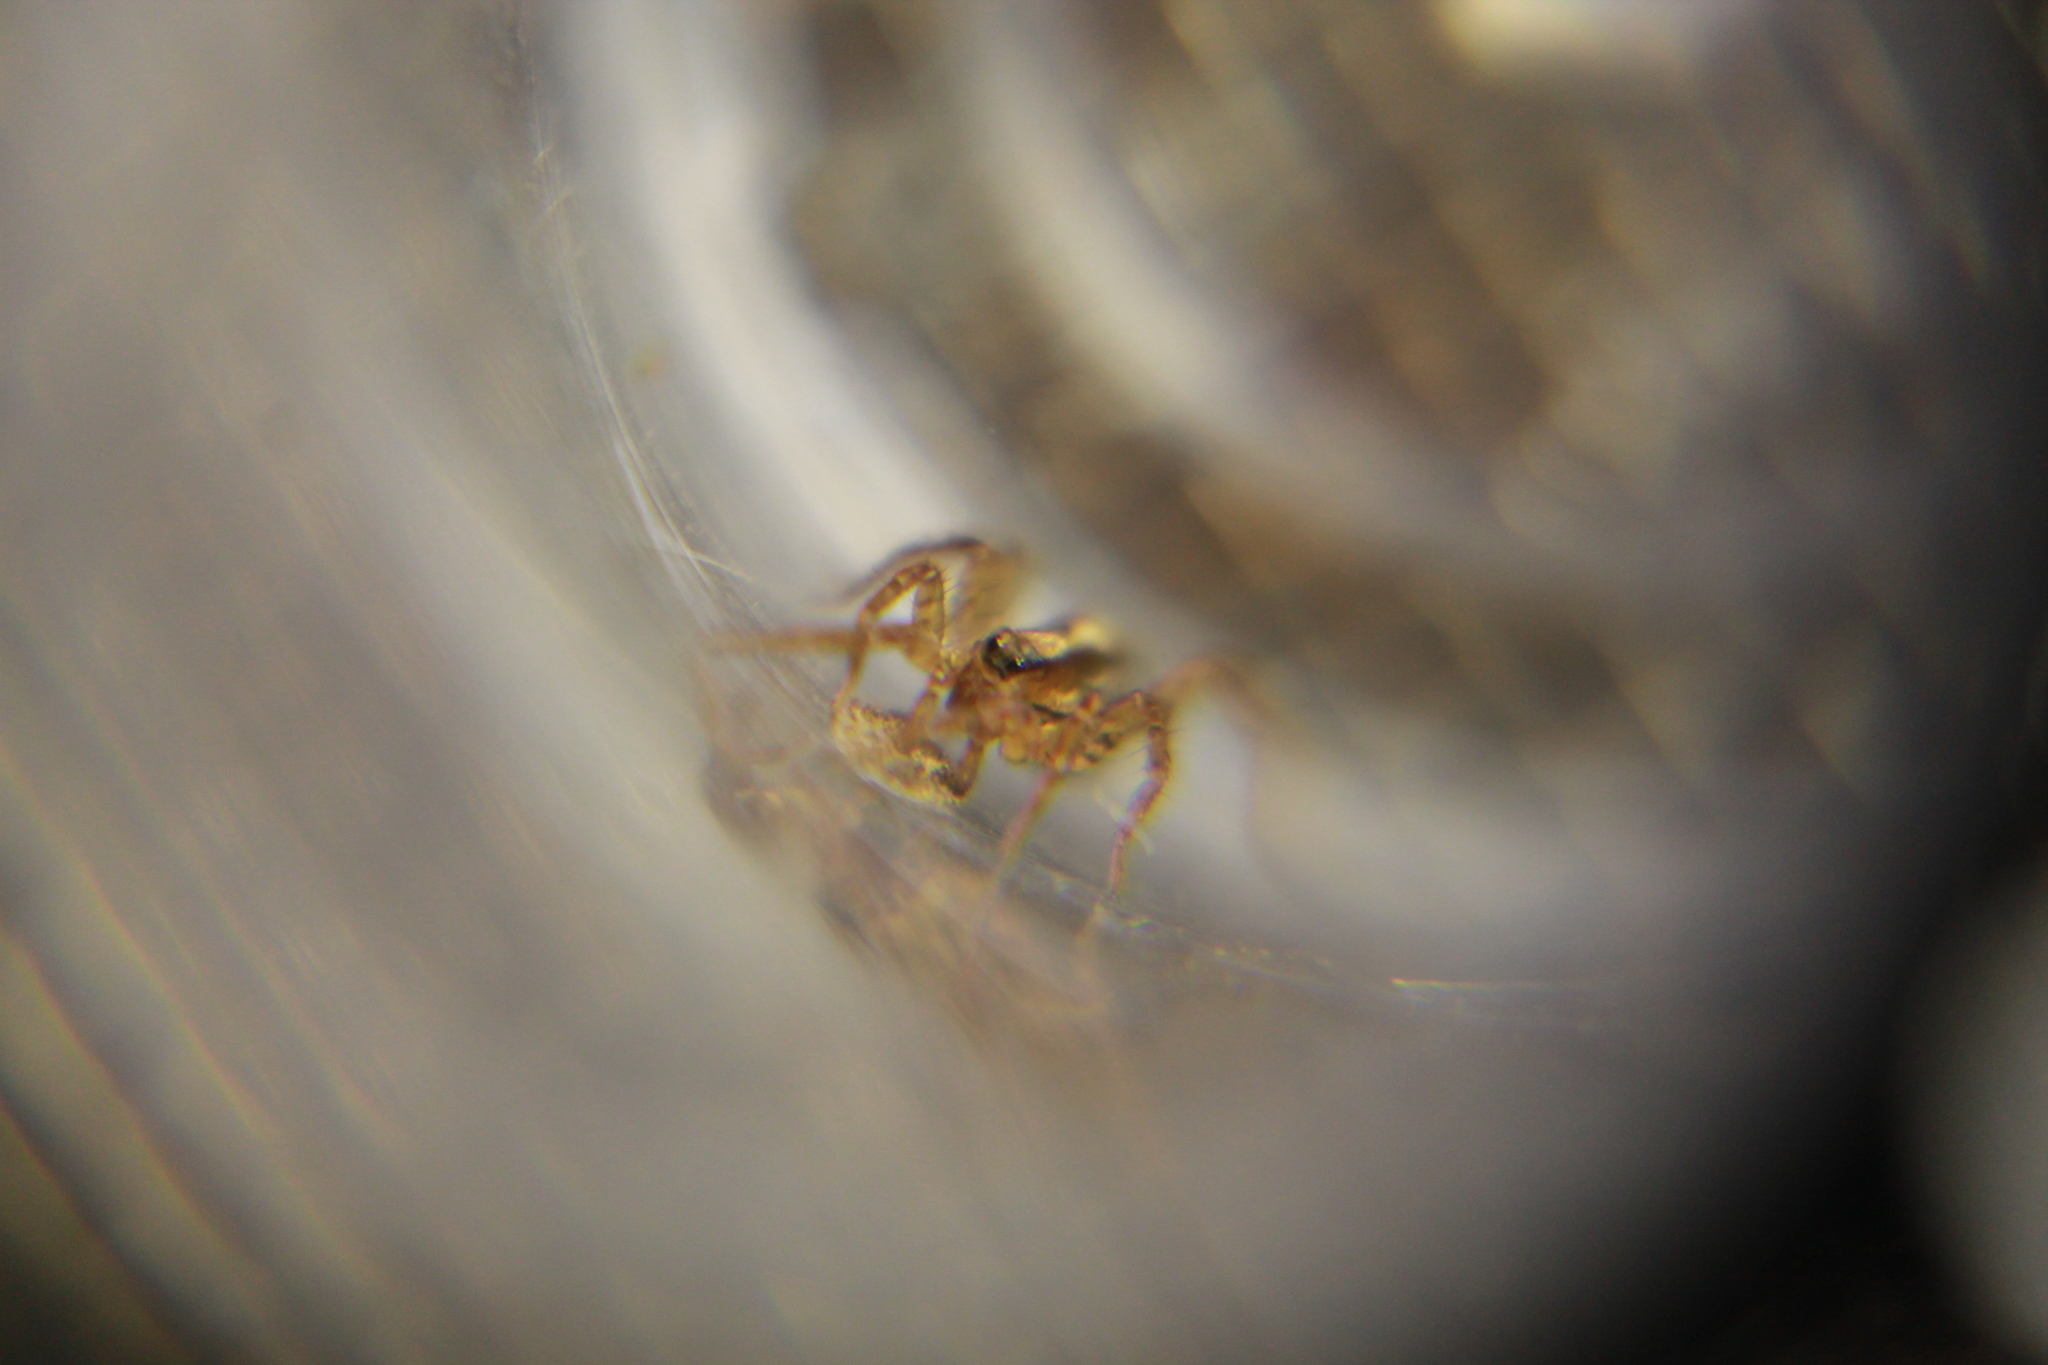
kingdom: Animalia
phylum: Arthropoda
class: Arachnida
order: Araneae
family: Lycosidae
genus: Anoteropsis
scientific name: Anoteropsis hilaris
